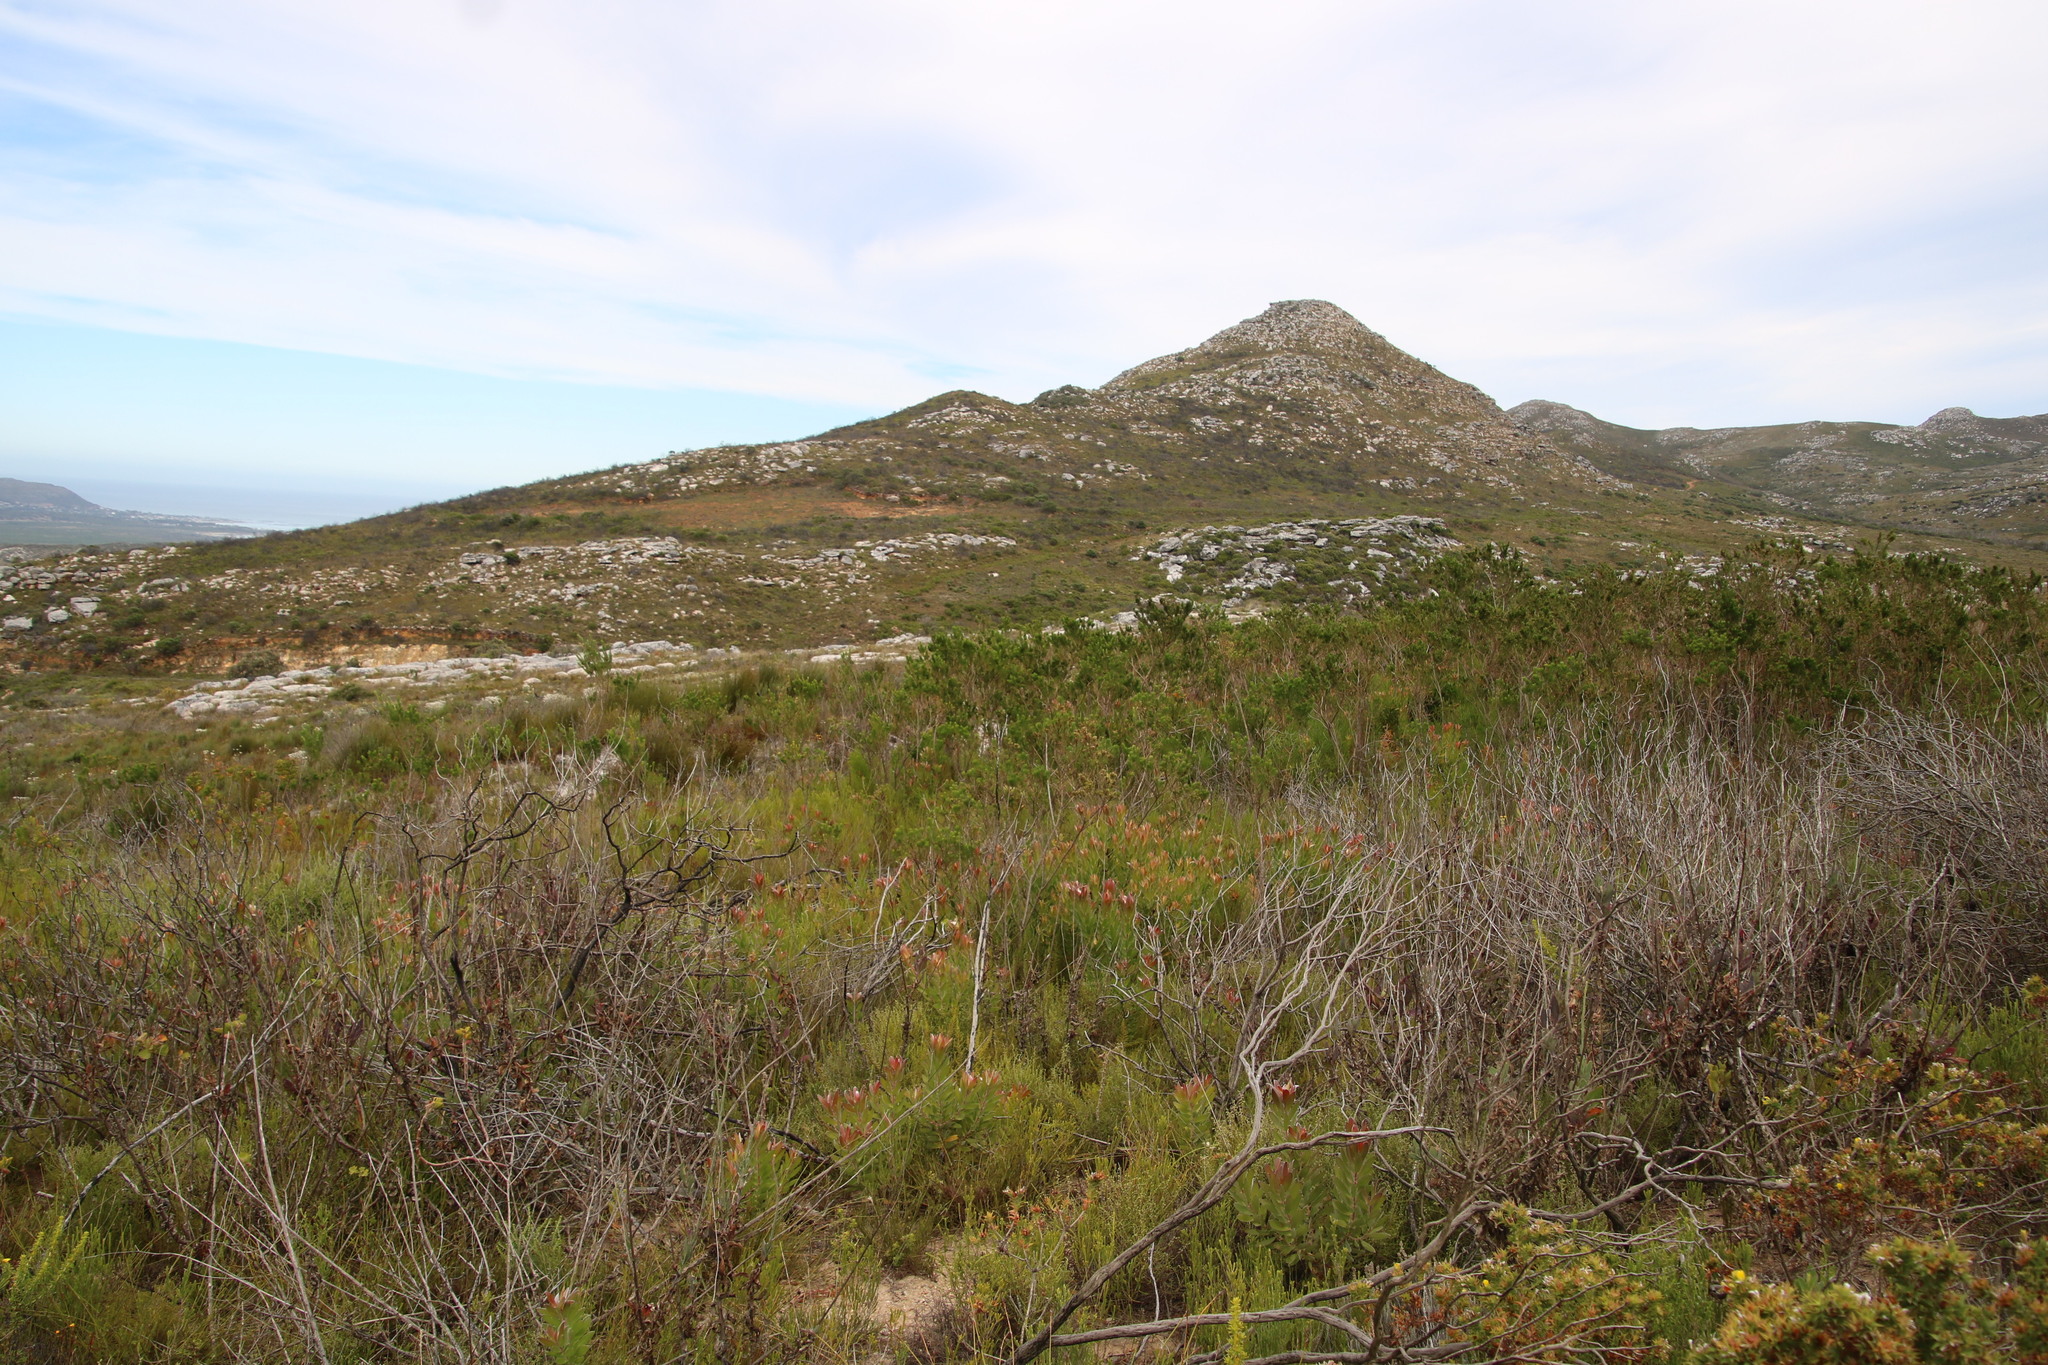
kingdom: Plantae
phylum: Tracheophyta
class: Magnoliopsida
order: Proteales
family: Proteaceae
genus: Leucadendron
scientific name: Leucadendron laureolum
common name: Golden sunshinebush
